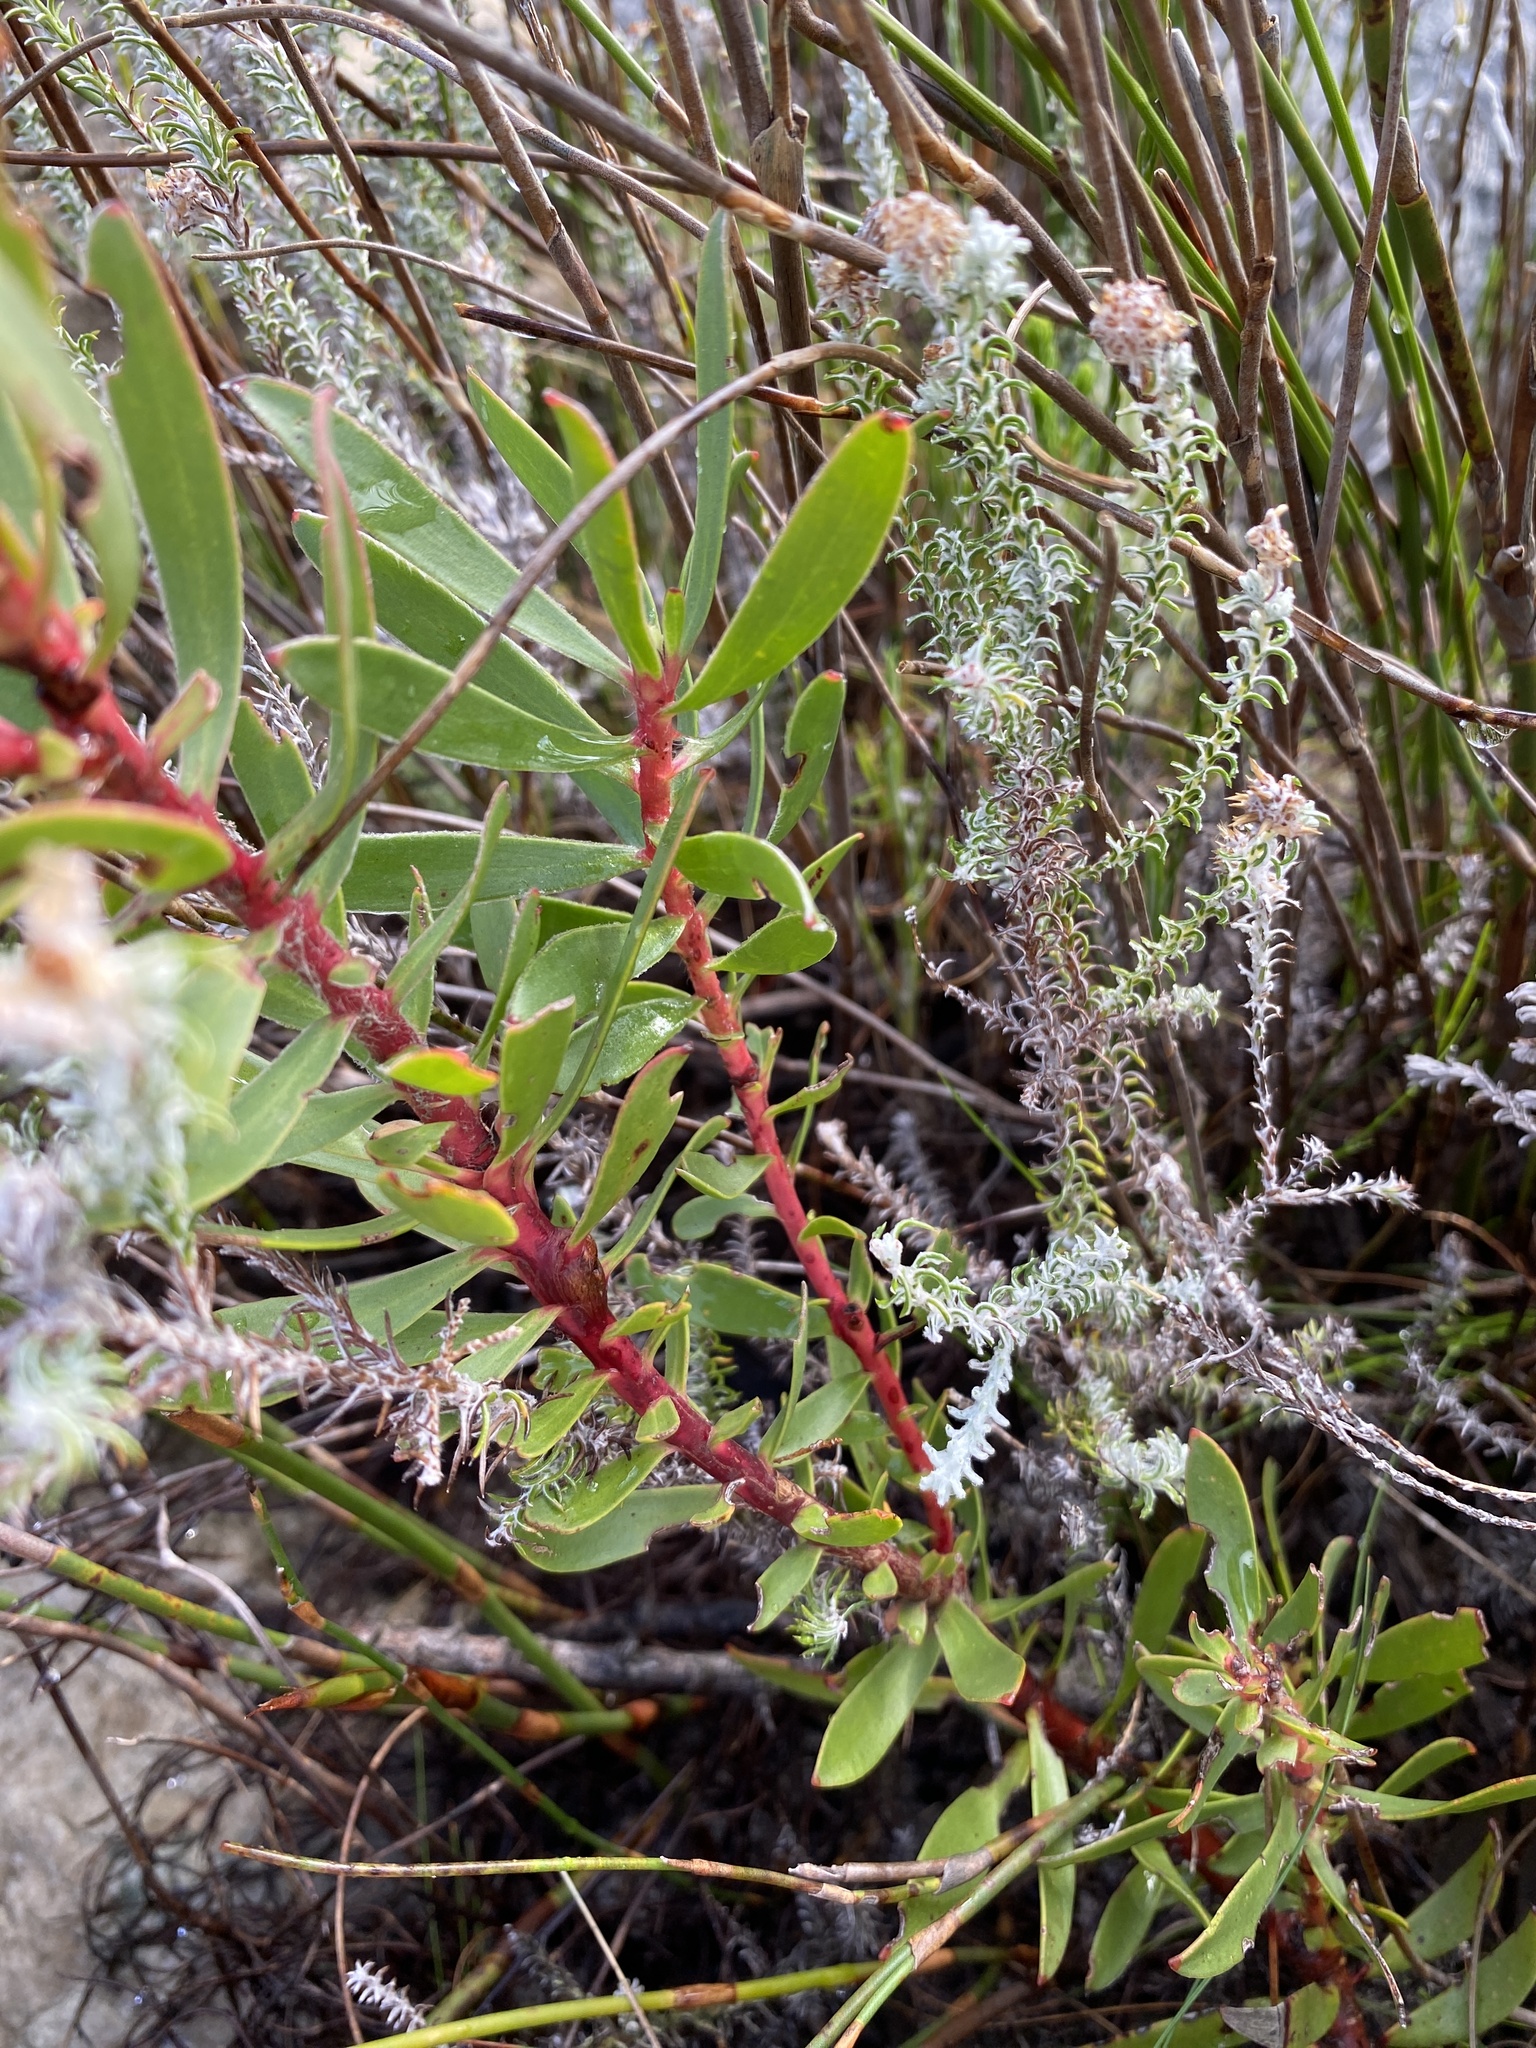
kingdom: Plantae
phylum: Tracheophyta
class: Magnoliopsida
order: Proteales
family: Proteaceae
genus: Leucadendron
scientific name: Leucadendron spissifolium
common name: Spear-leaf conebush
